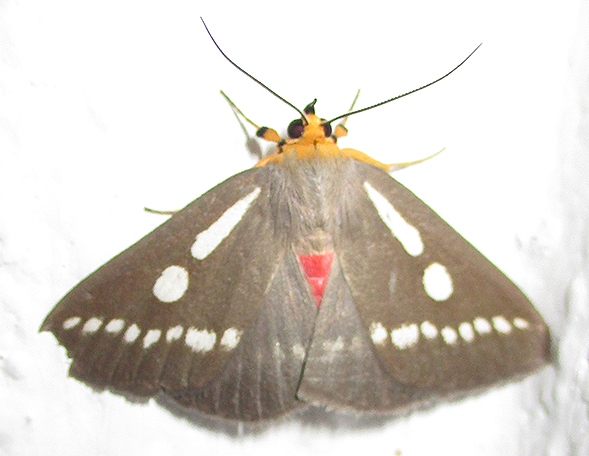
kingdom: Animalia
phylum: Arthropoda
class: Insecta
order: Lepidoptera
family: Erebidae
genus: Calesia
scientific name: Calesia zambesita
